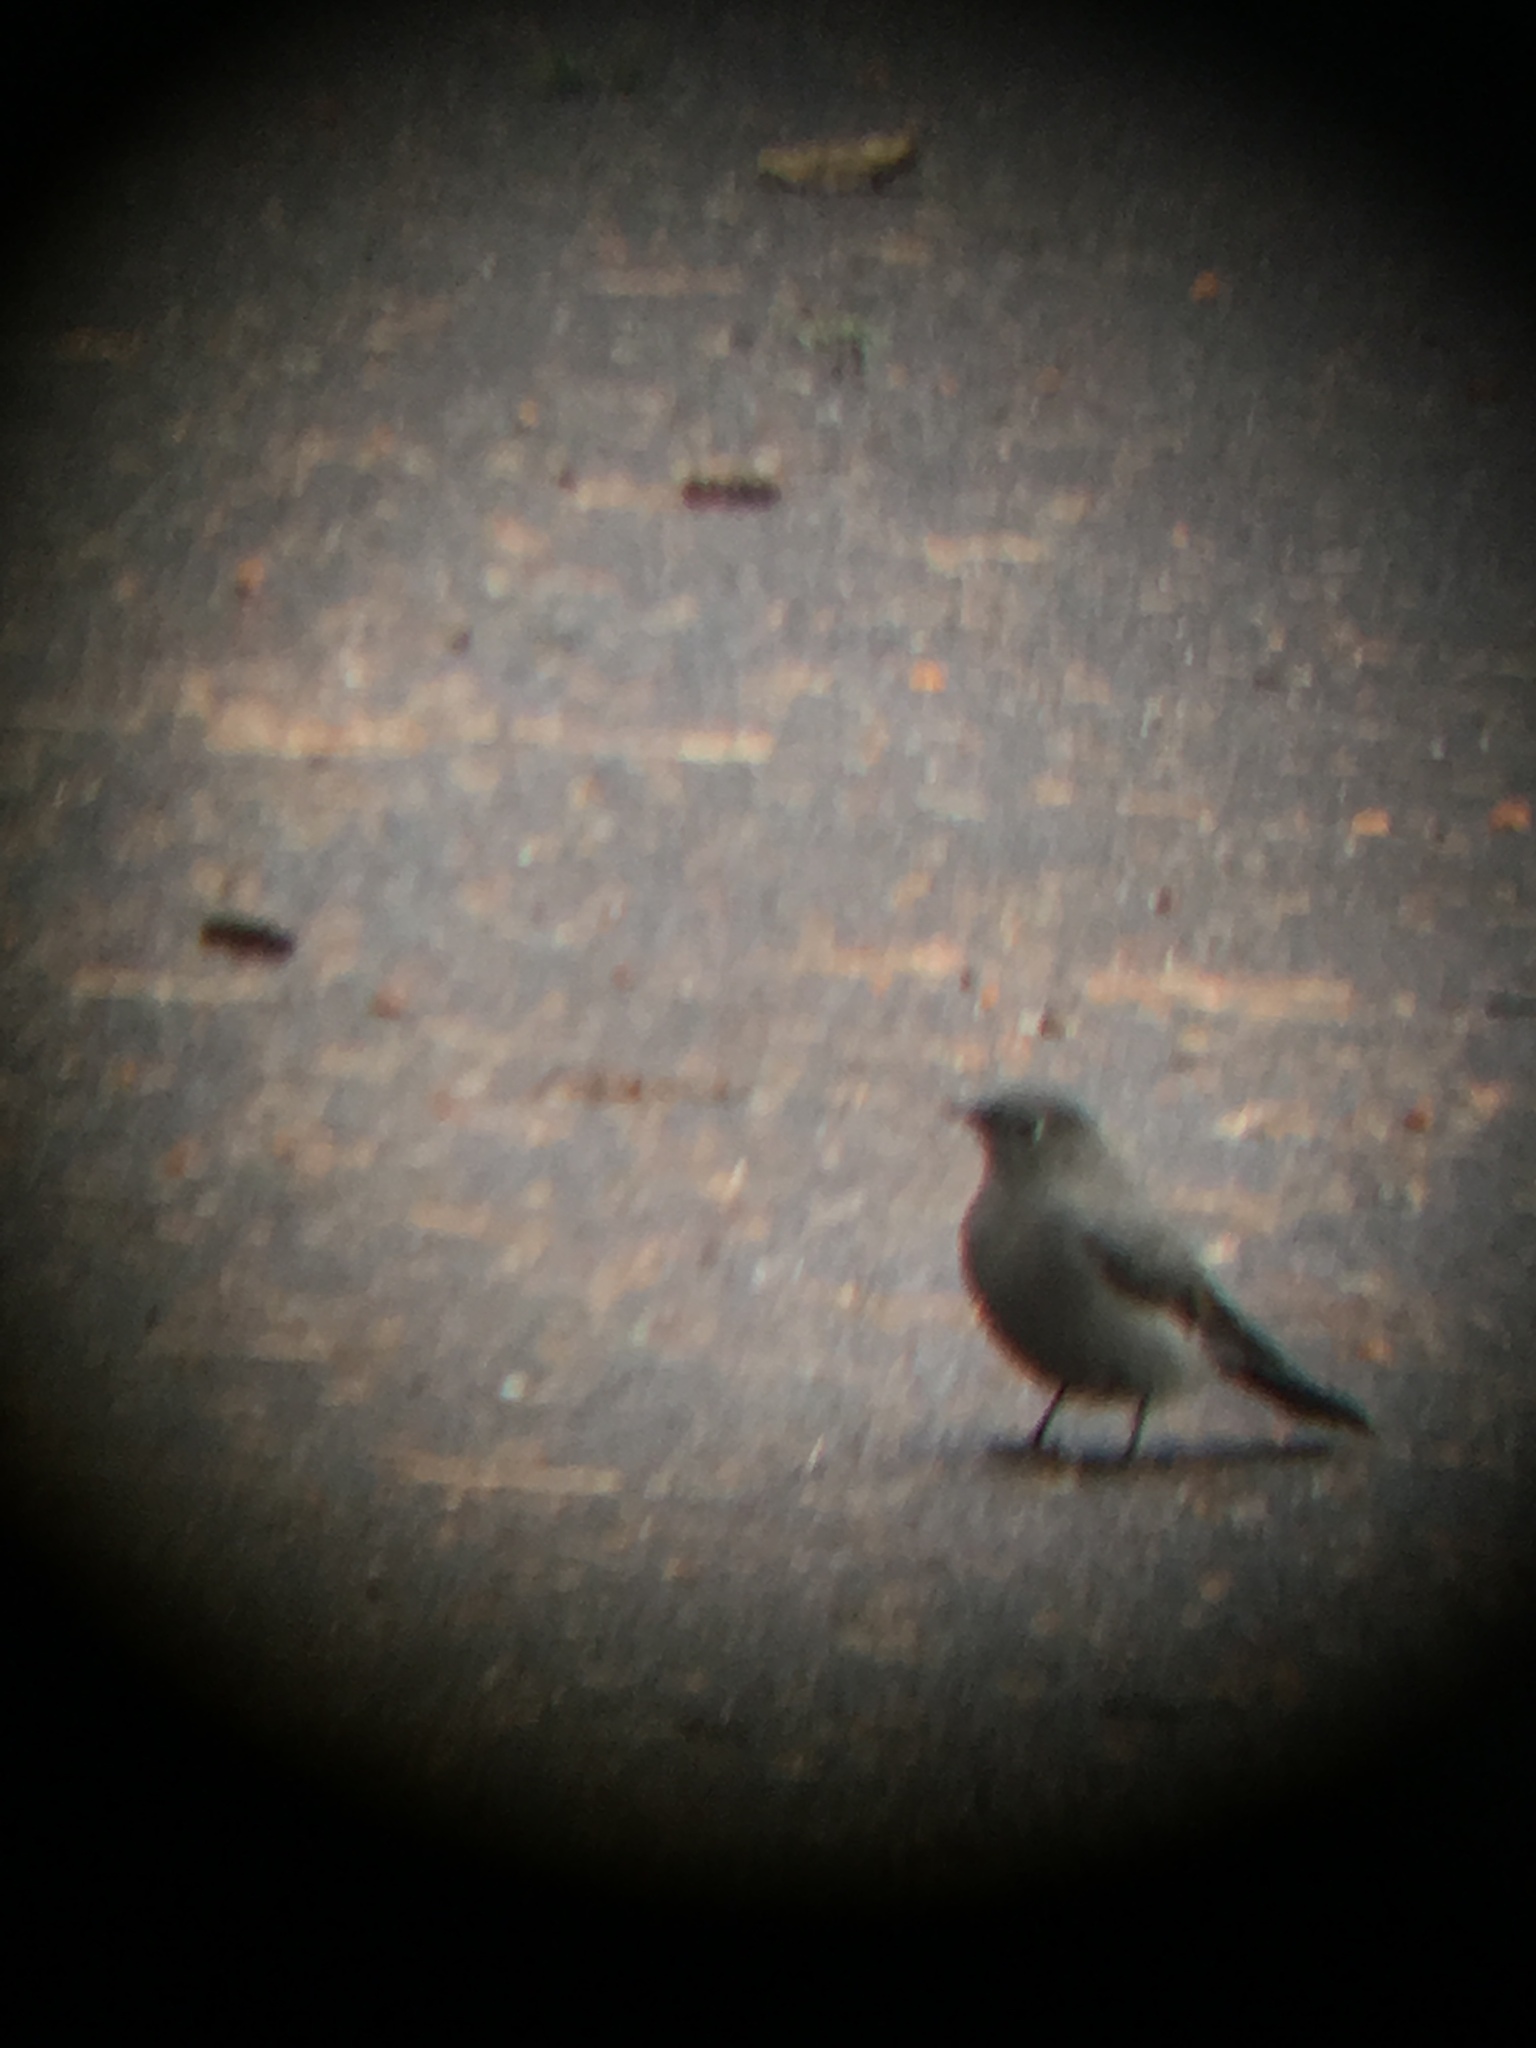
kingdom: Animalia
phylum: Chordata
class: Aves
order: Passeriformes
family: Turdidae
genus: Myadestes
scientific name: Myadestes townsendi
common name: Townsend's solitaire
